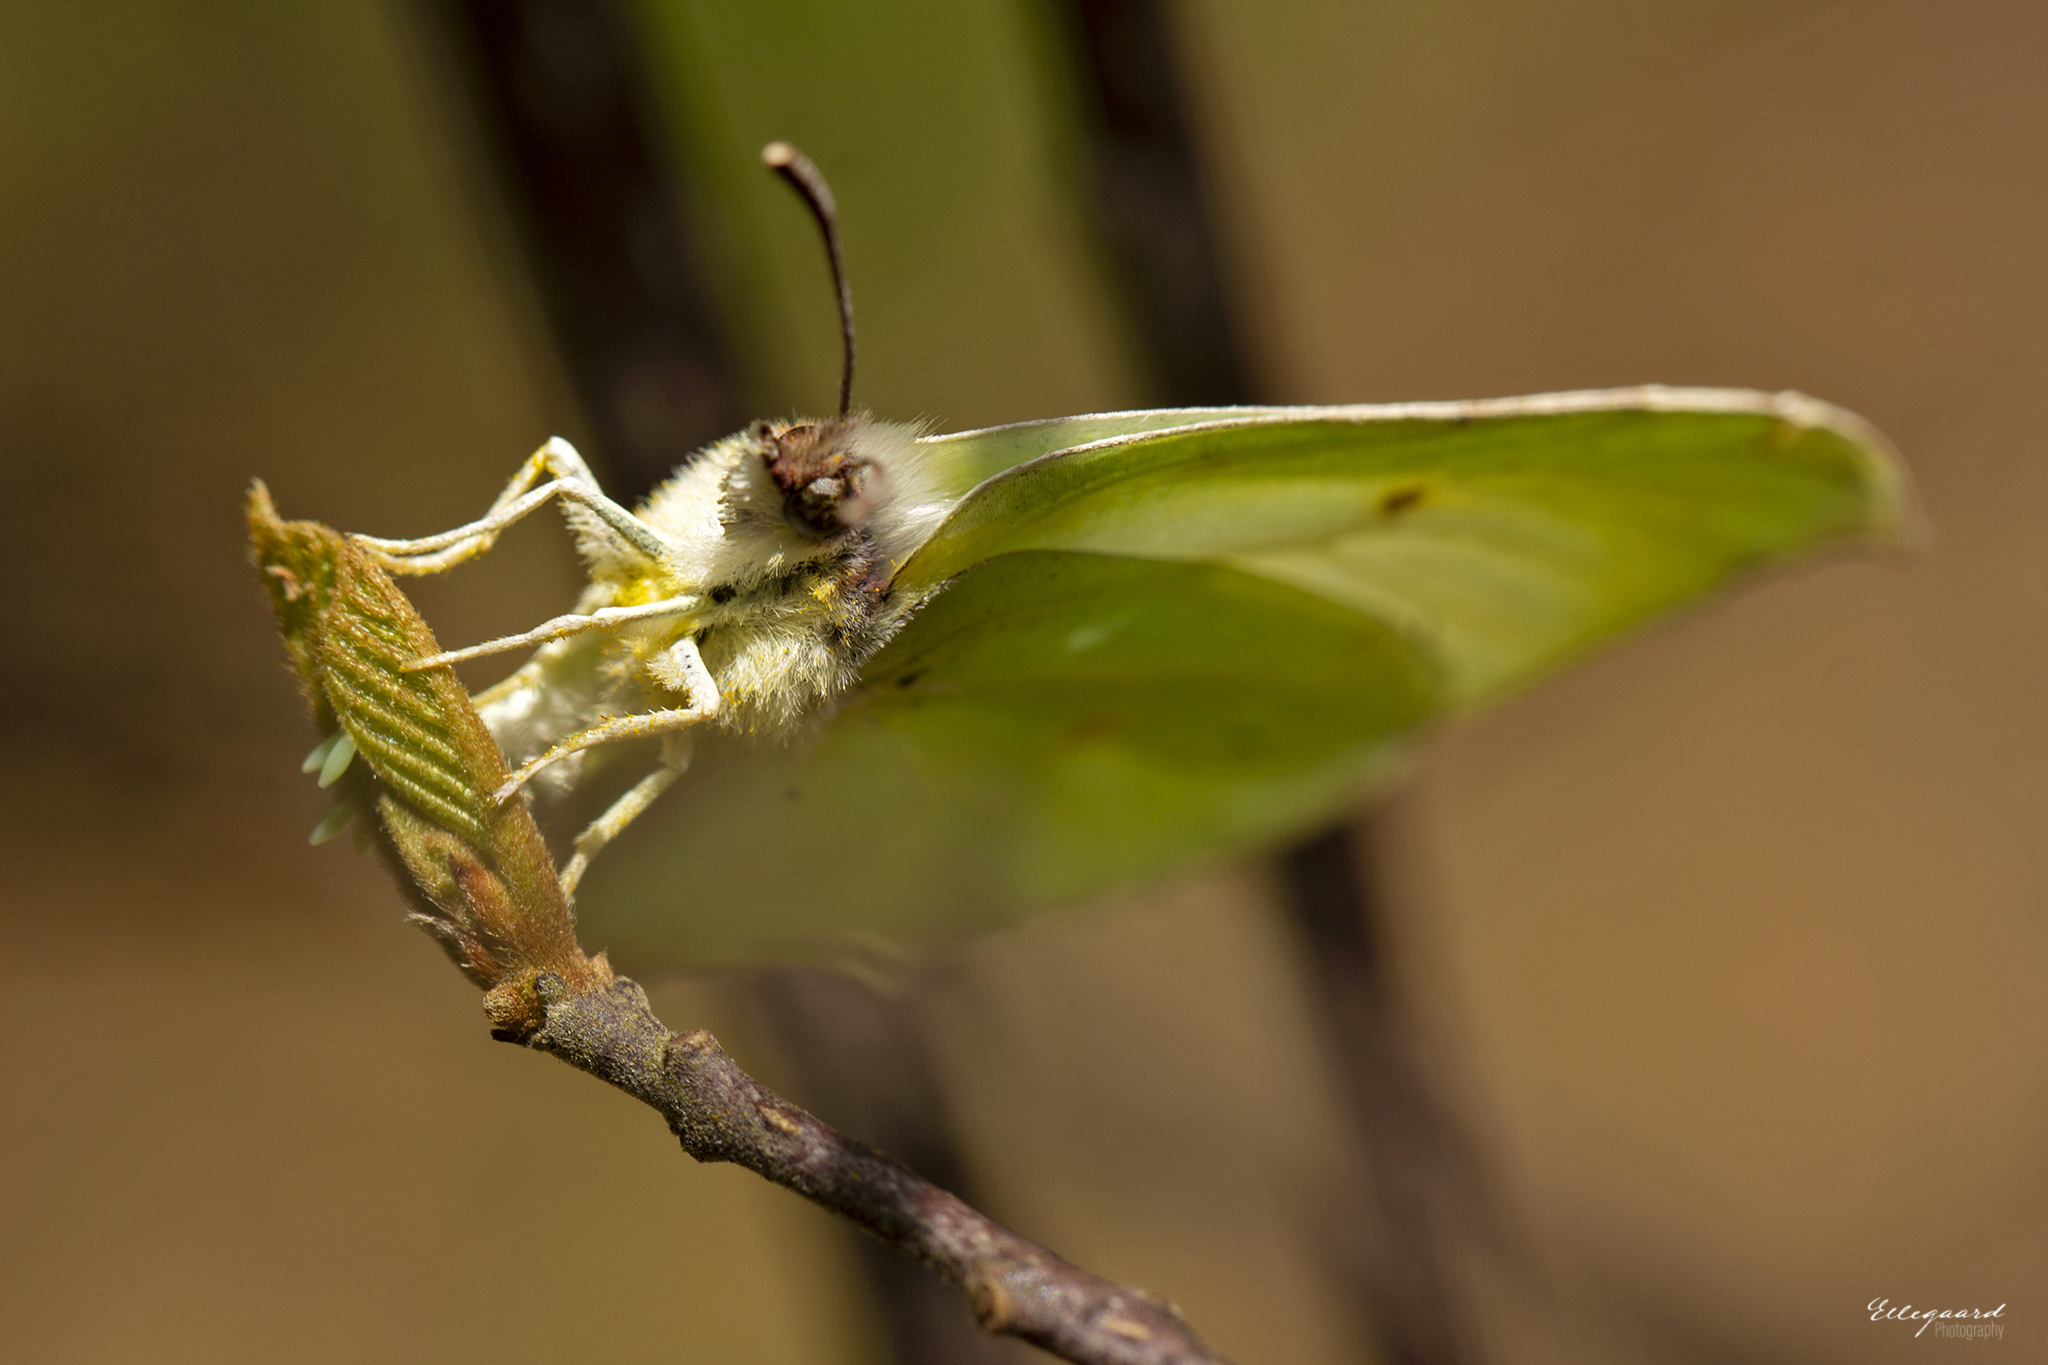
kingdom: Animalia
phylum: Arthropoda
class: Insecta
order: Lepidoptera
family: Pieridae
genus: Gonepteryx
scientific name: Gonepteryx rhamni
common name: Brimstone
